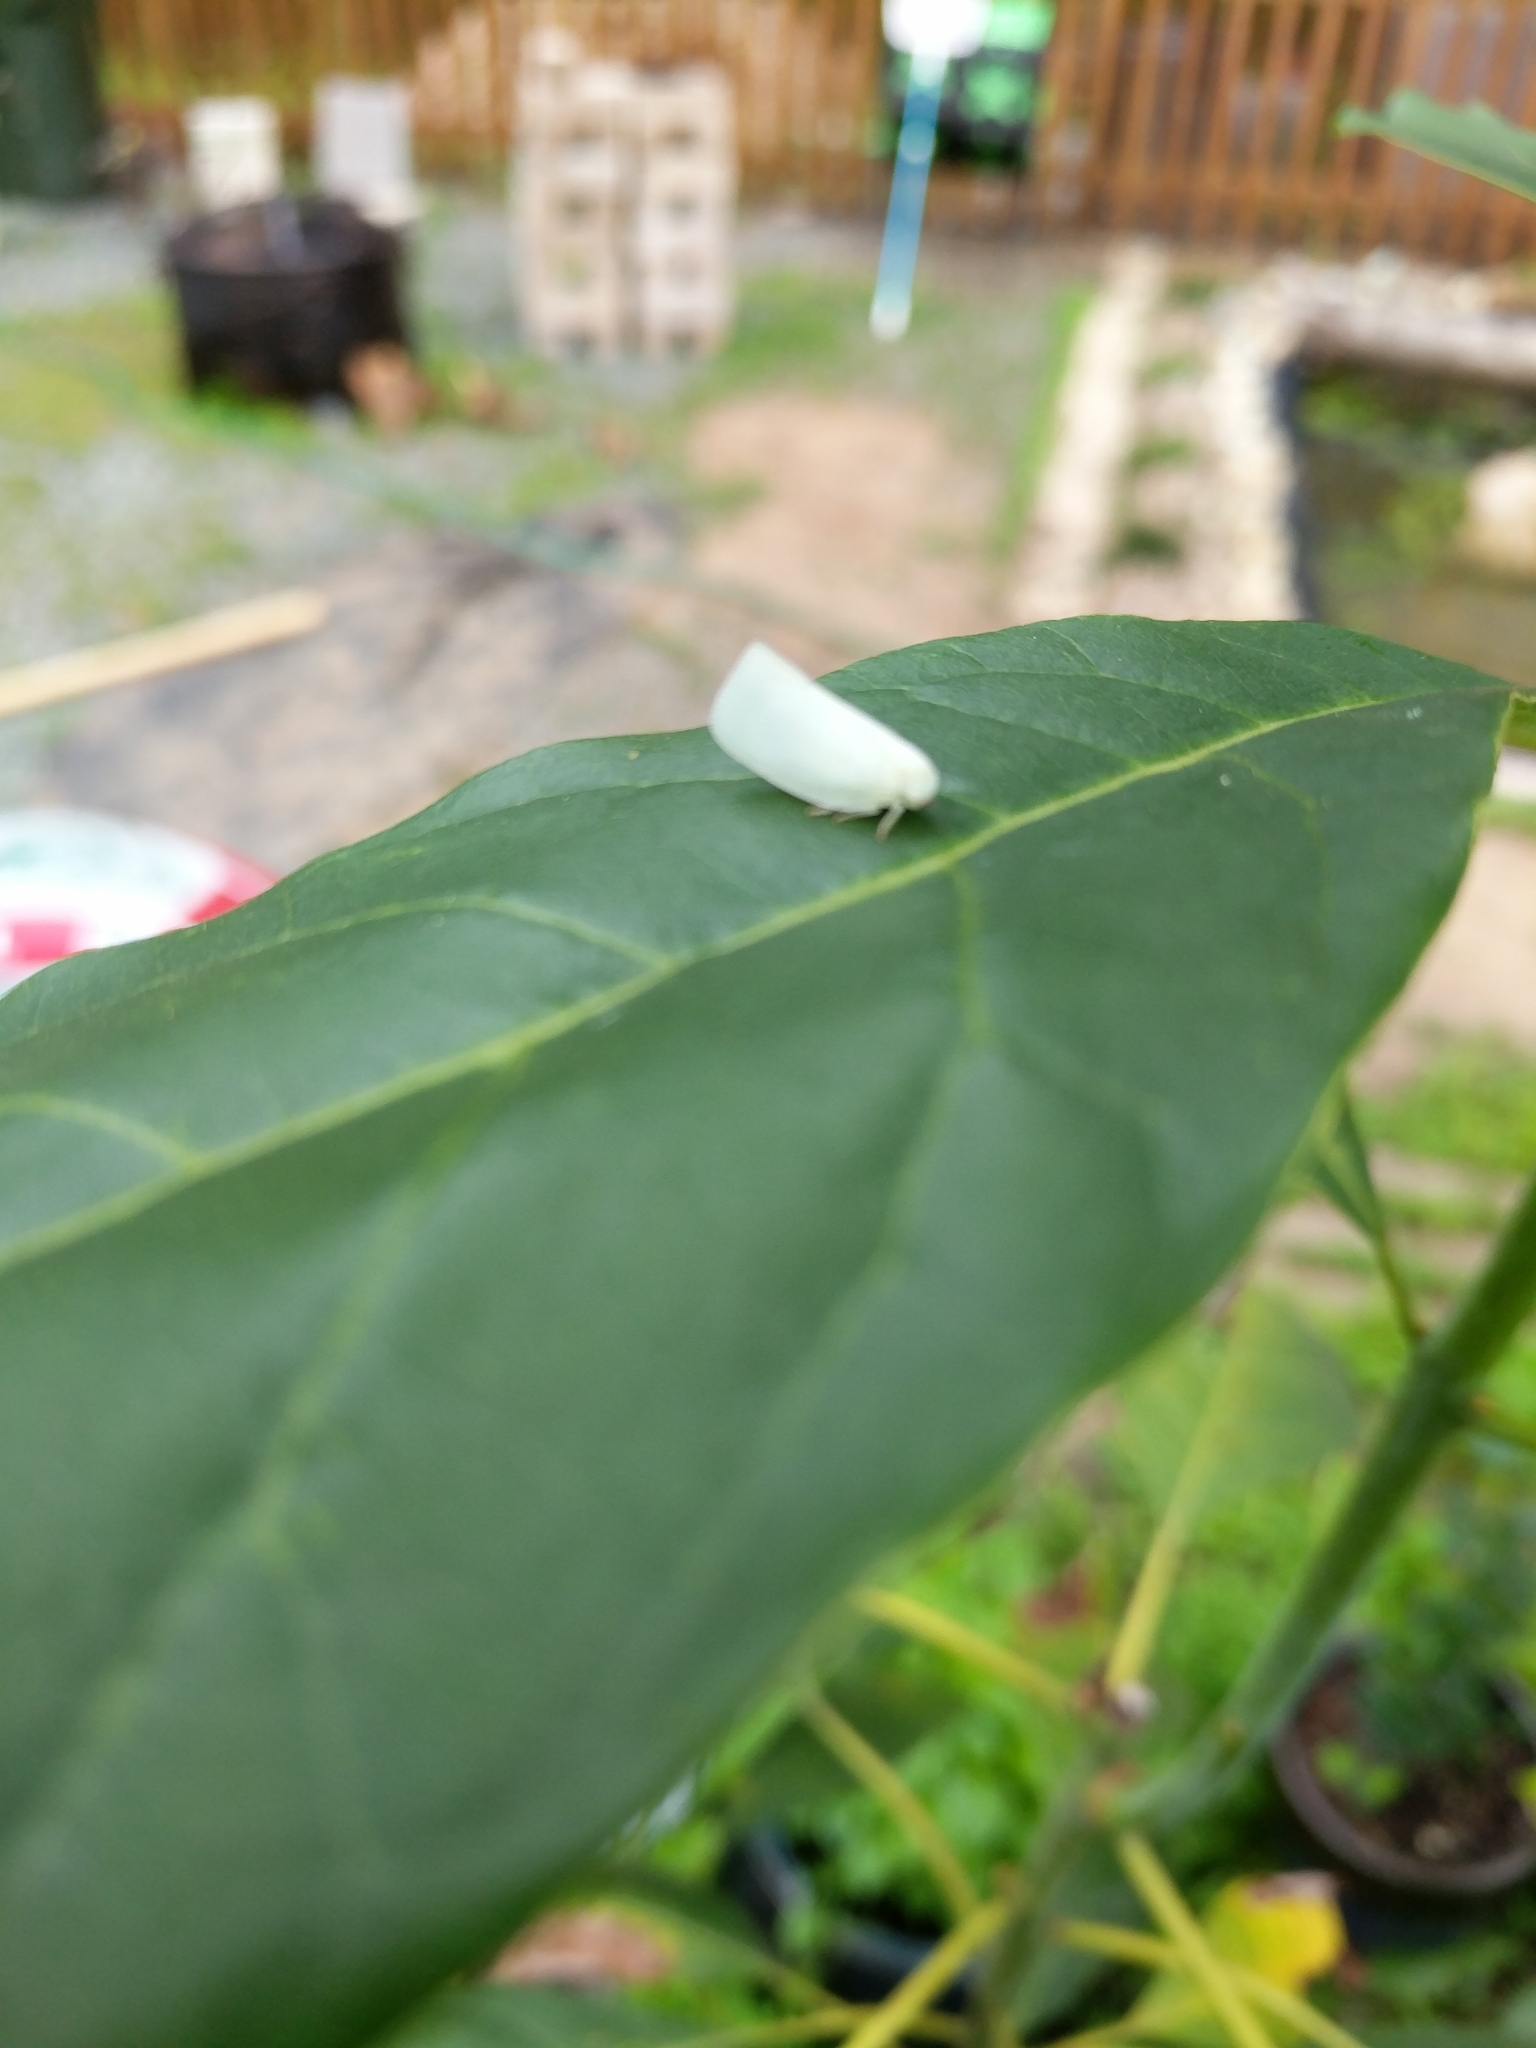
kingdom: Animalia
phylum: Arthropoda
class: Insecta
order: Hemiptera
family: Flatidae
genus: Flatormenis
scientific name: Flatormenis proxima
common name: Northern flatid planthopper
